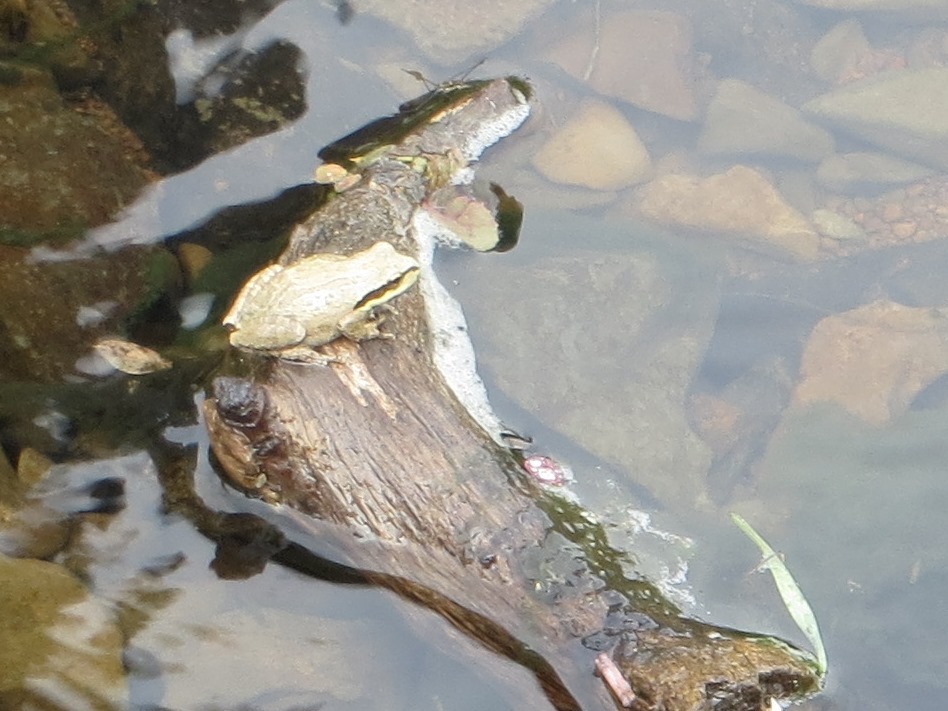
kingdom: Animalia
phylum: Chordata
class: Amphibia
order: Anura
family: Hylidae
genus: Pseudacris
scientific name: Pseudacris regilla
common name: Pacific chorus frog
